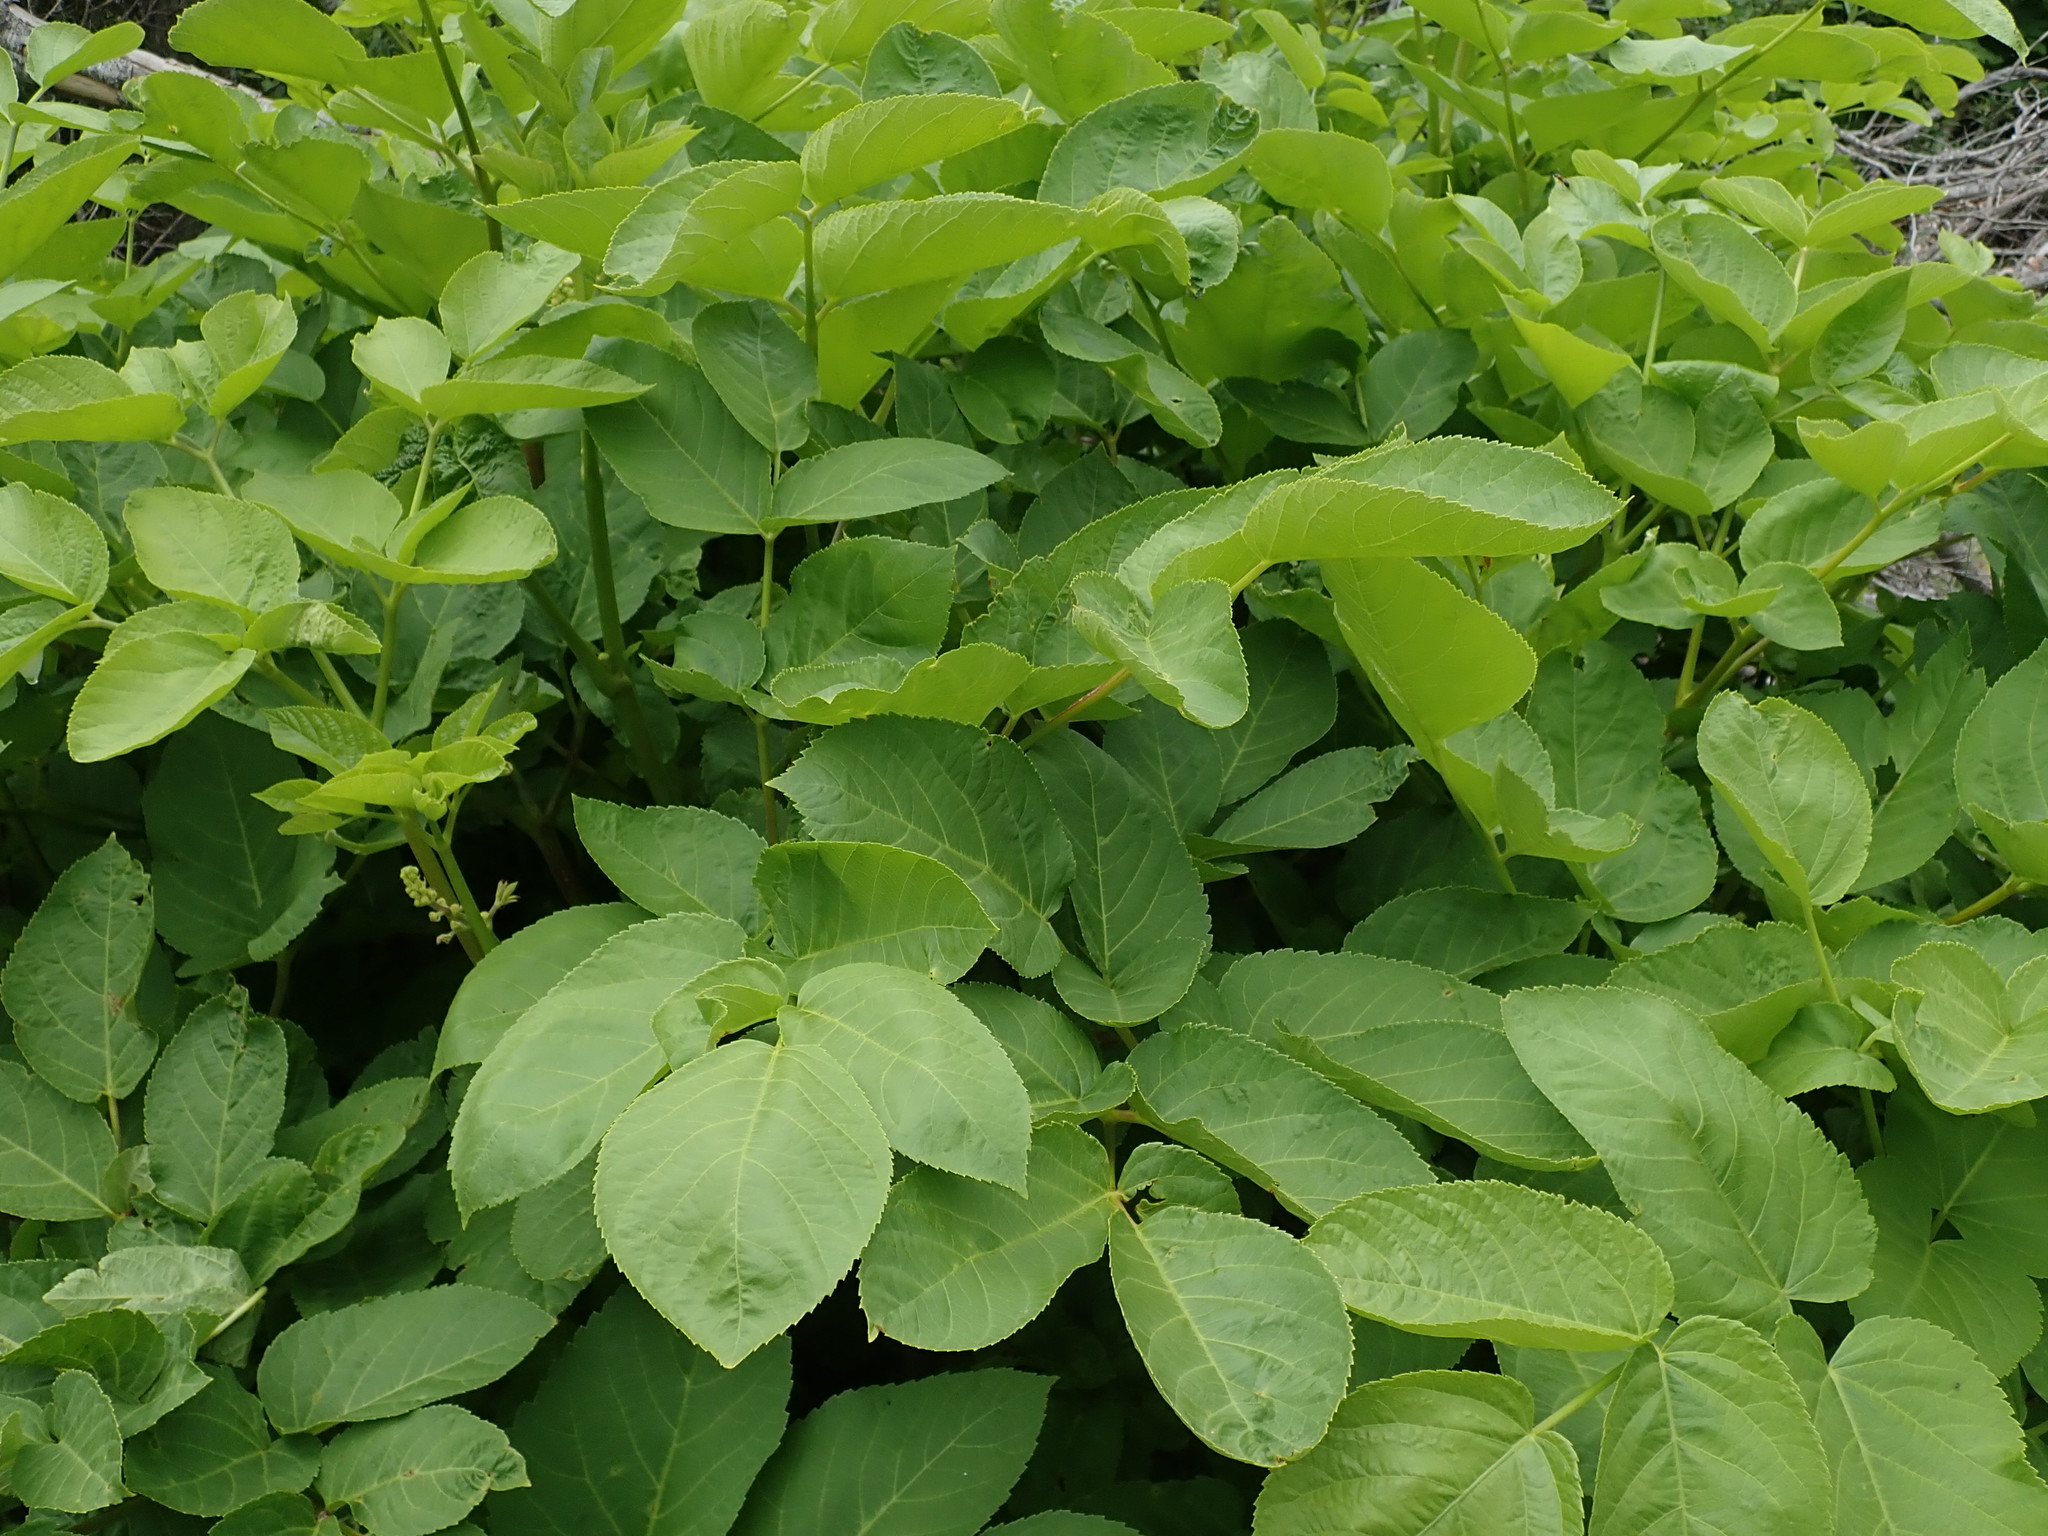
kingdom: Plantae
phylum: Tracheophyta
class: Magnoliopsida
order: Apiales
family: Araliaceae
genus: Aralia
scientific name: Aralia californica
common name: California-ginseng
